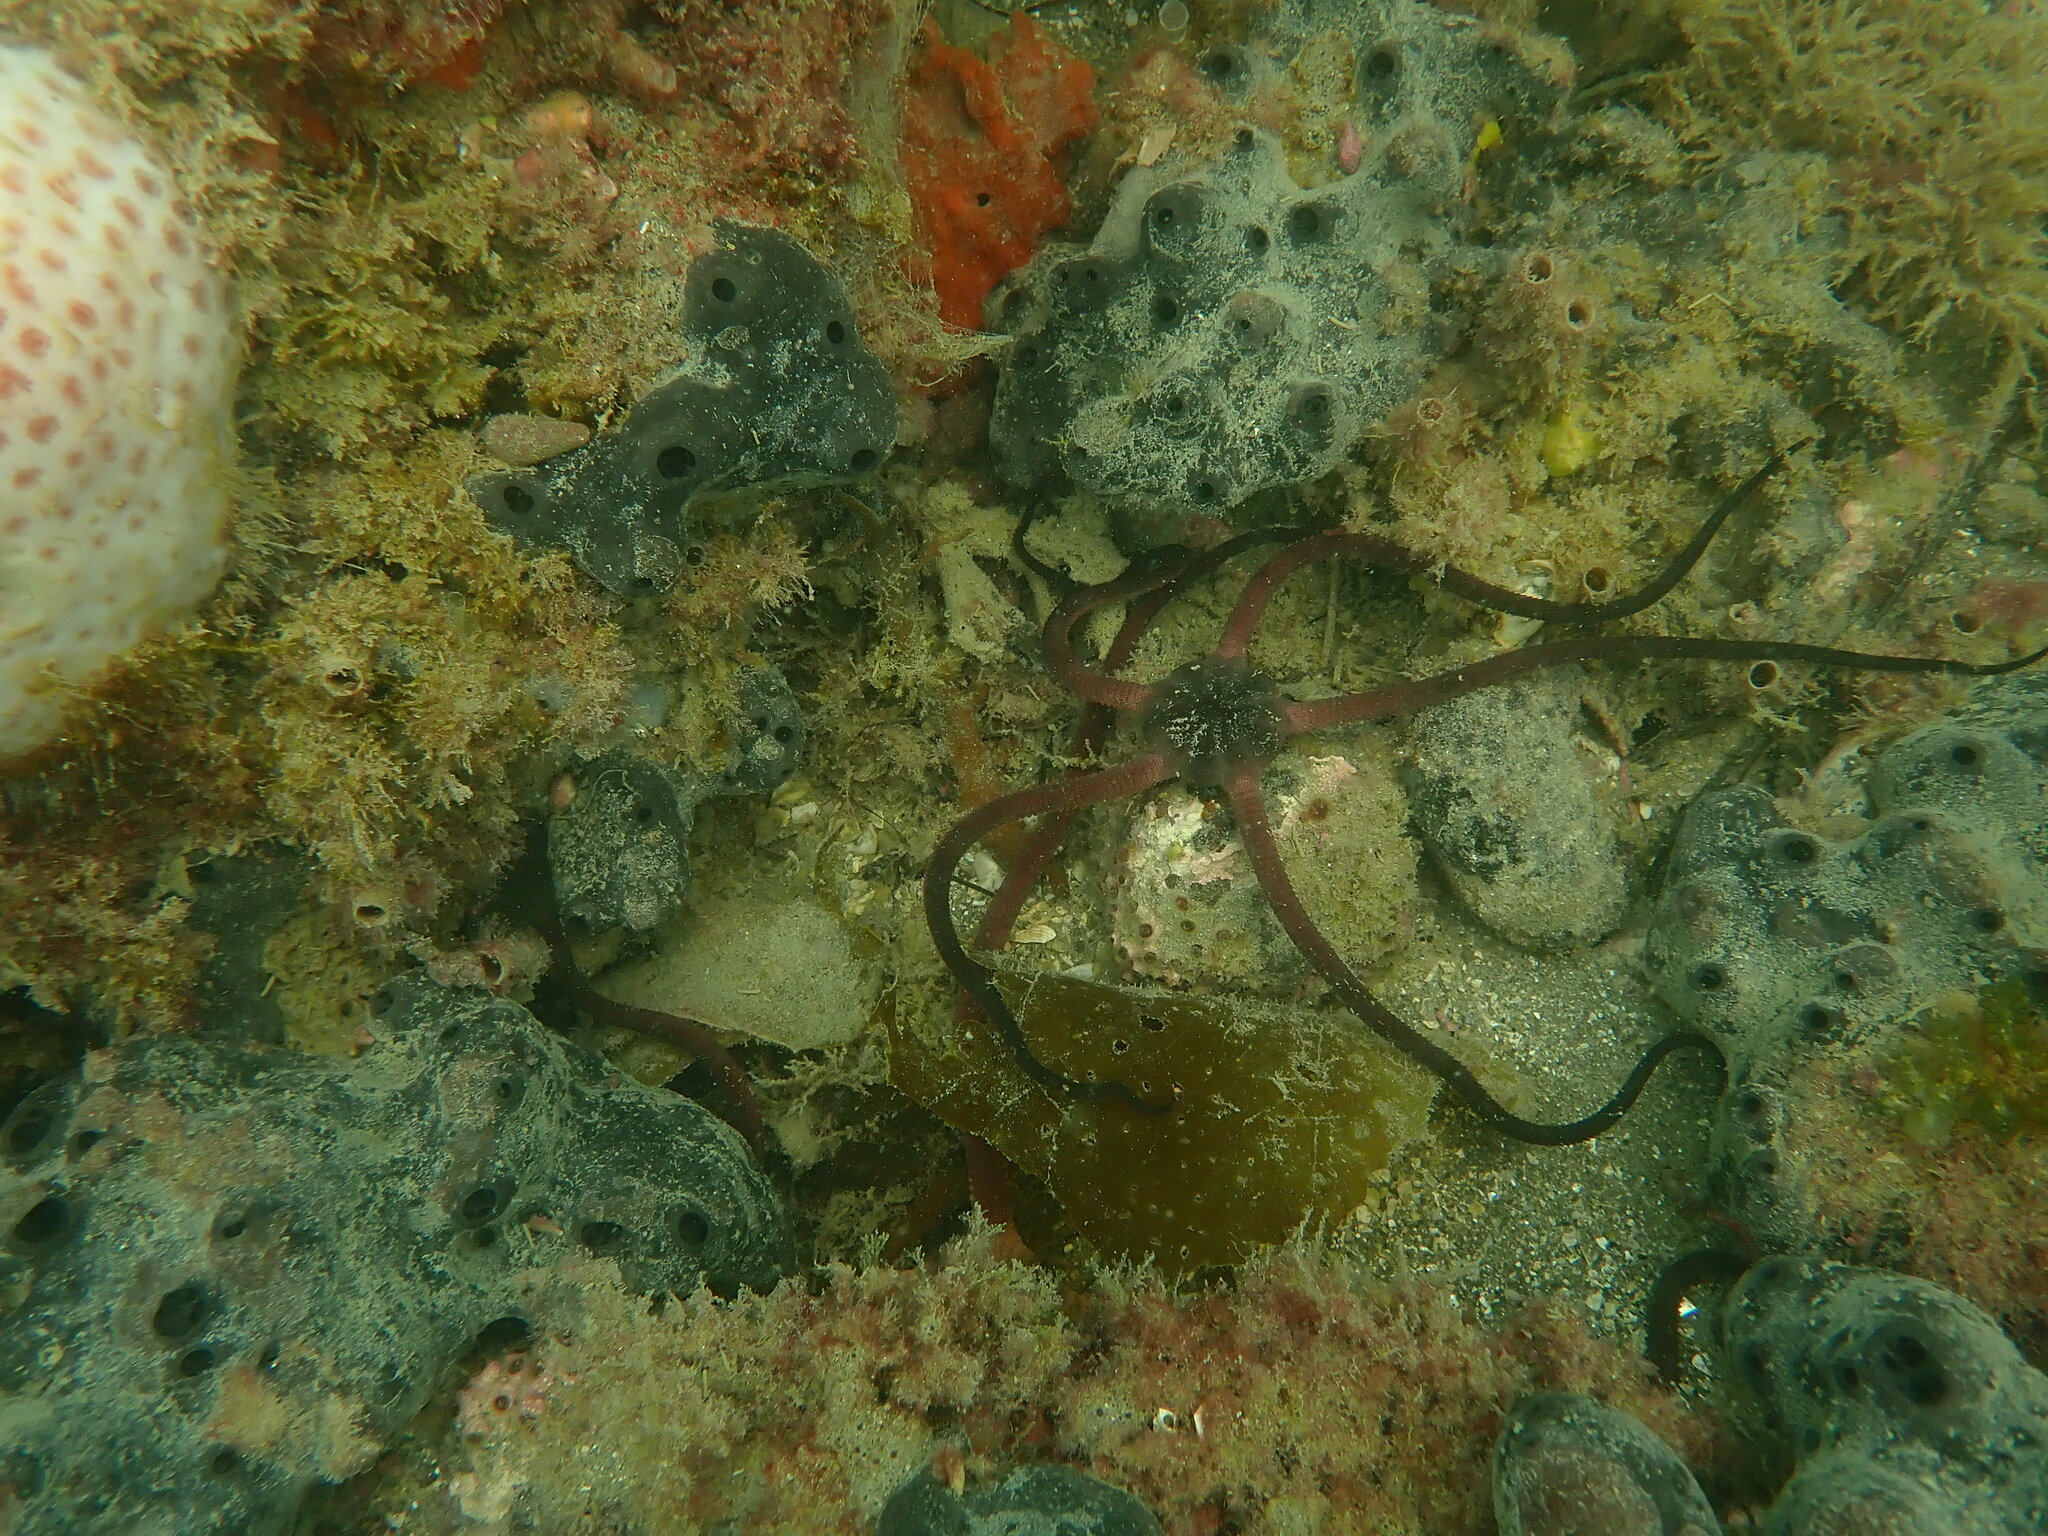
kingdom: Animalia
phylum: Echinodermata
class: Ophiuroidea
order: Ophiacanthida
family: Ophiodermatidae
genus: Ophiopsammus
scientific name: Ophiopsammus maculata
